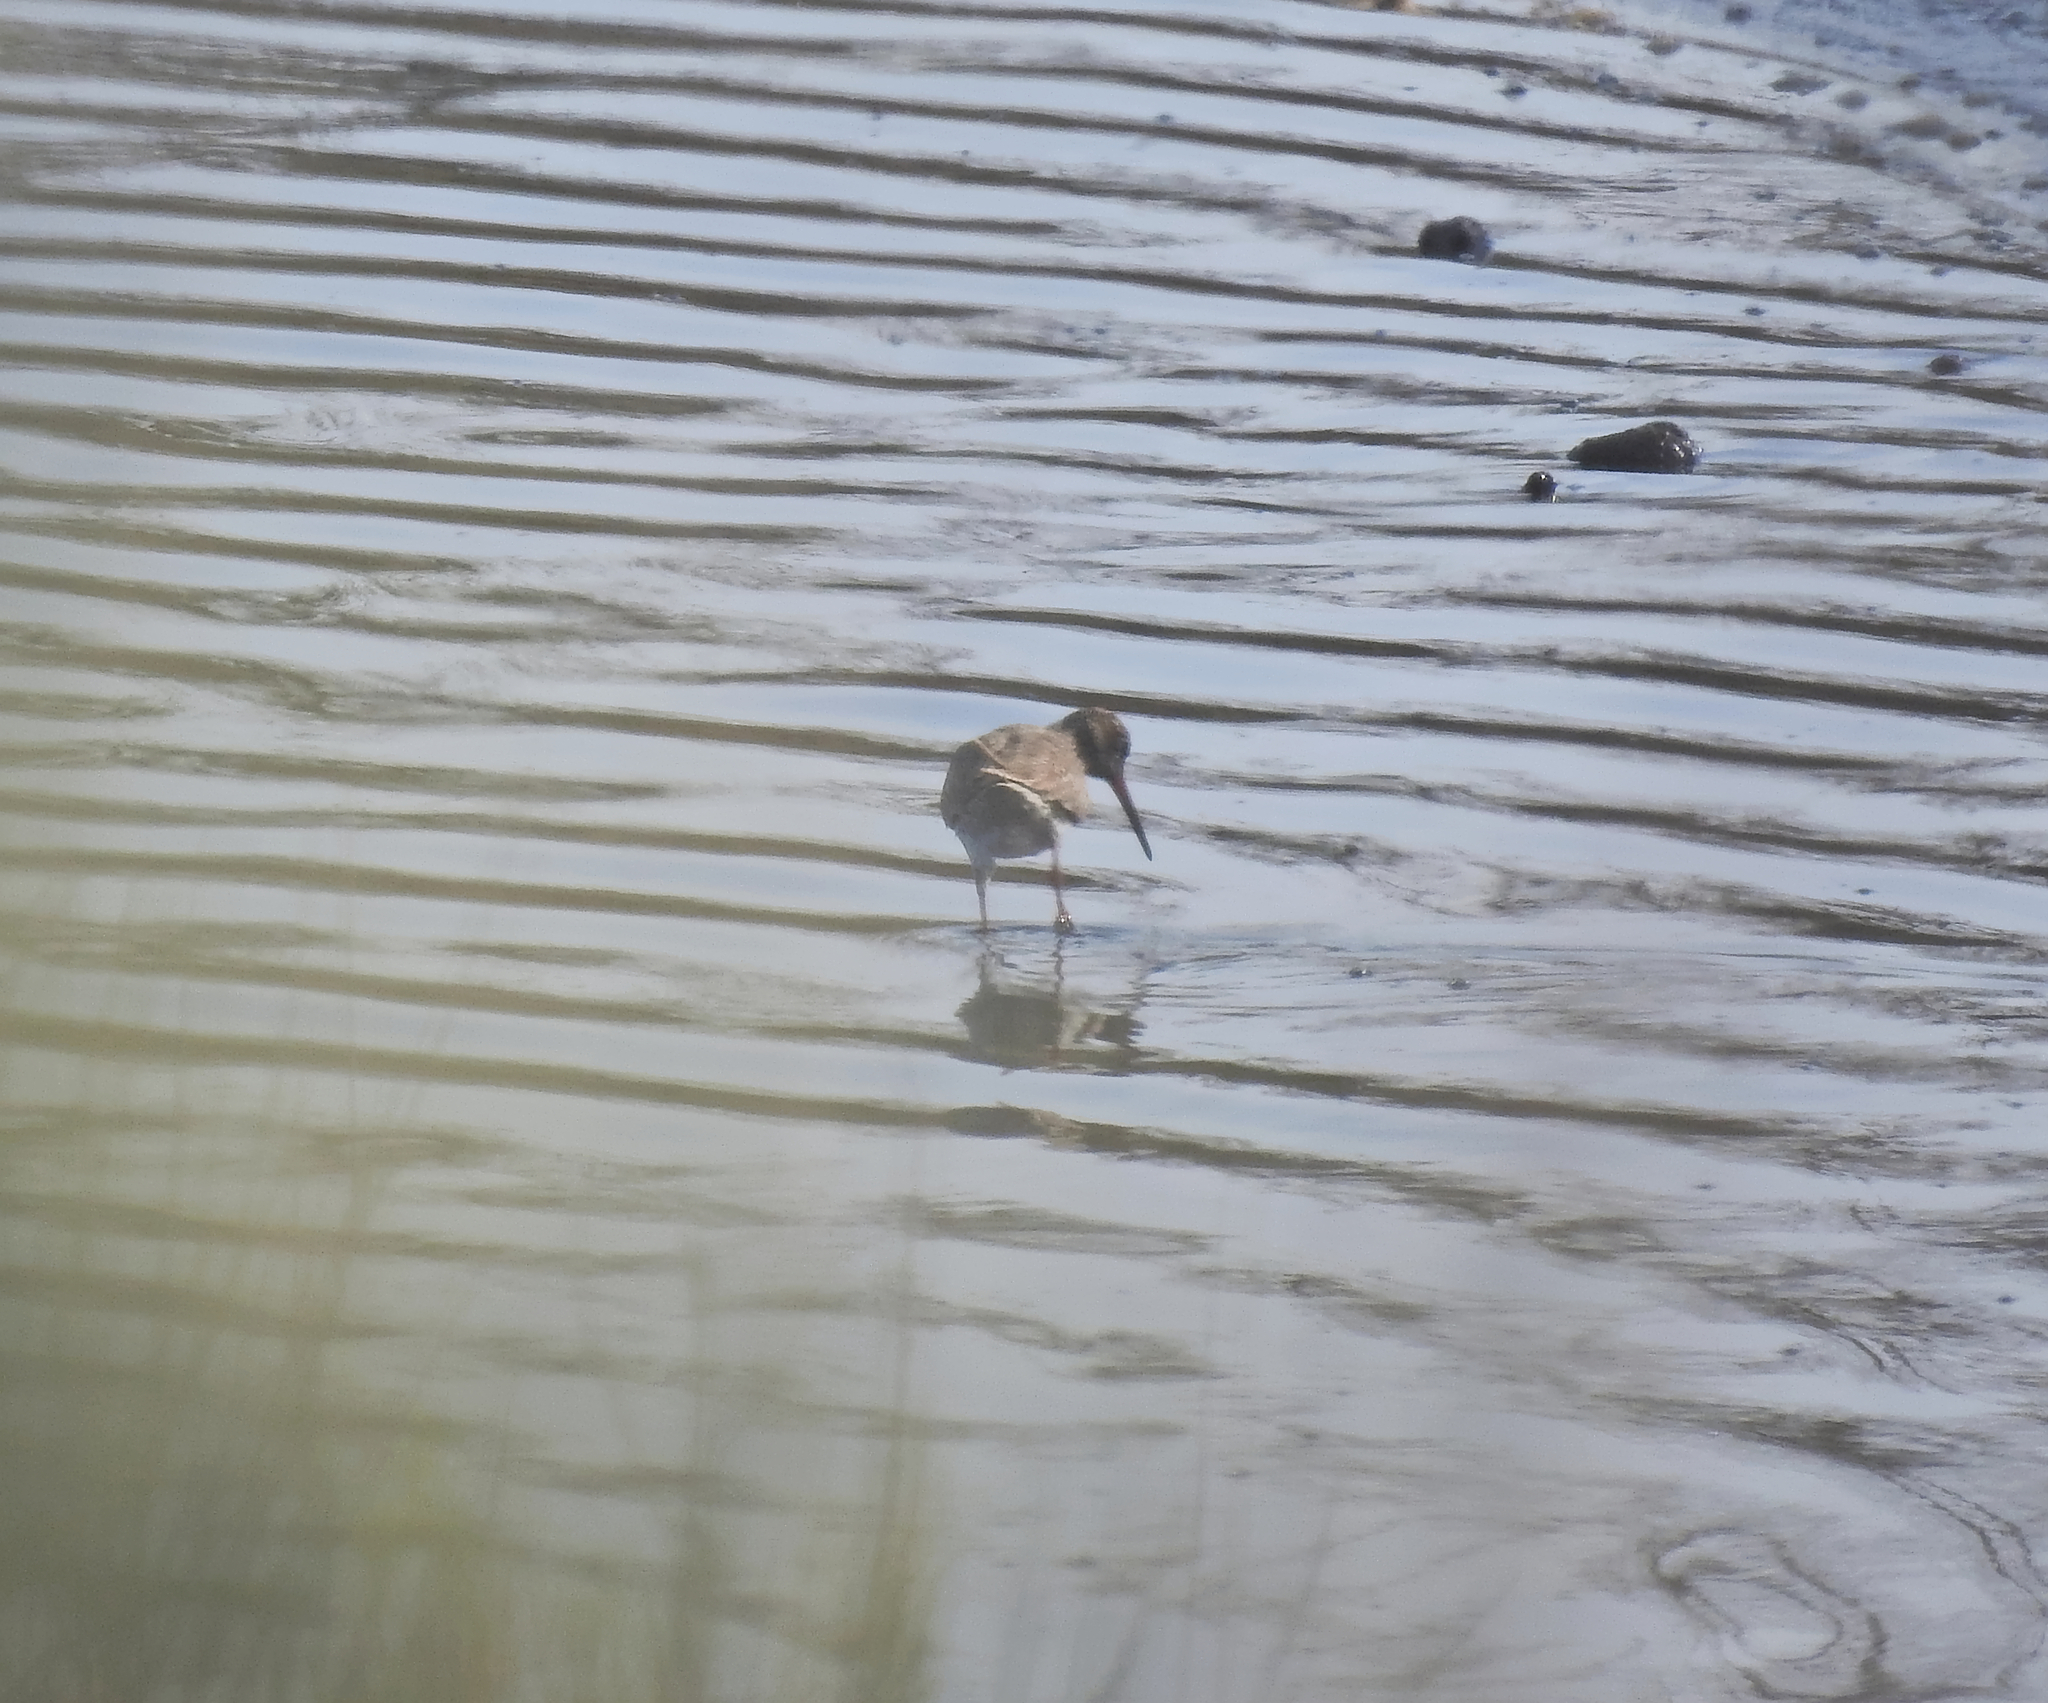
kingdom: Animalia
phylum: Chordata
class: Aves
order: Charadriiformes
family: Scolopacidae
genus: Tringa
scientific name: Tringa totanus
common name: Common redshank
